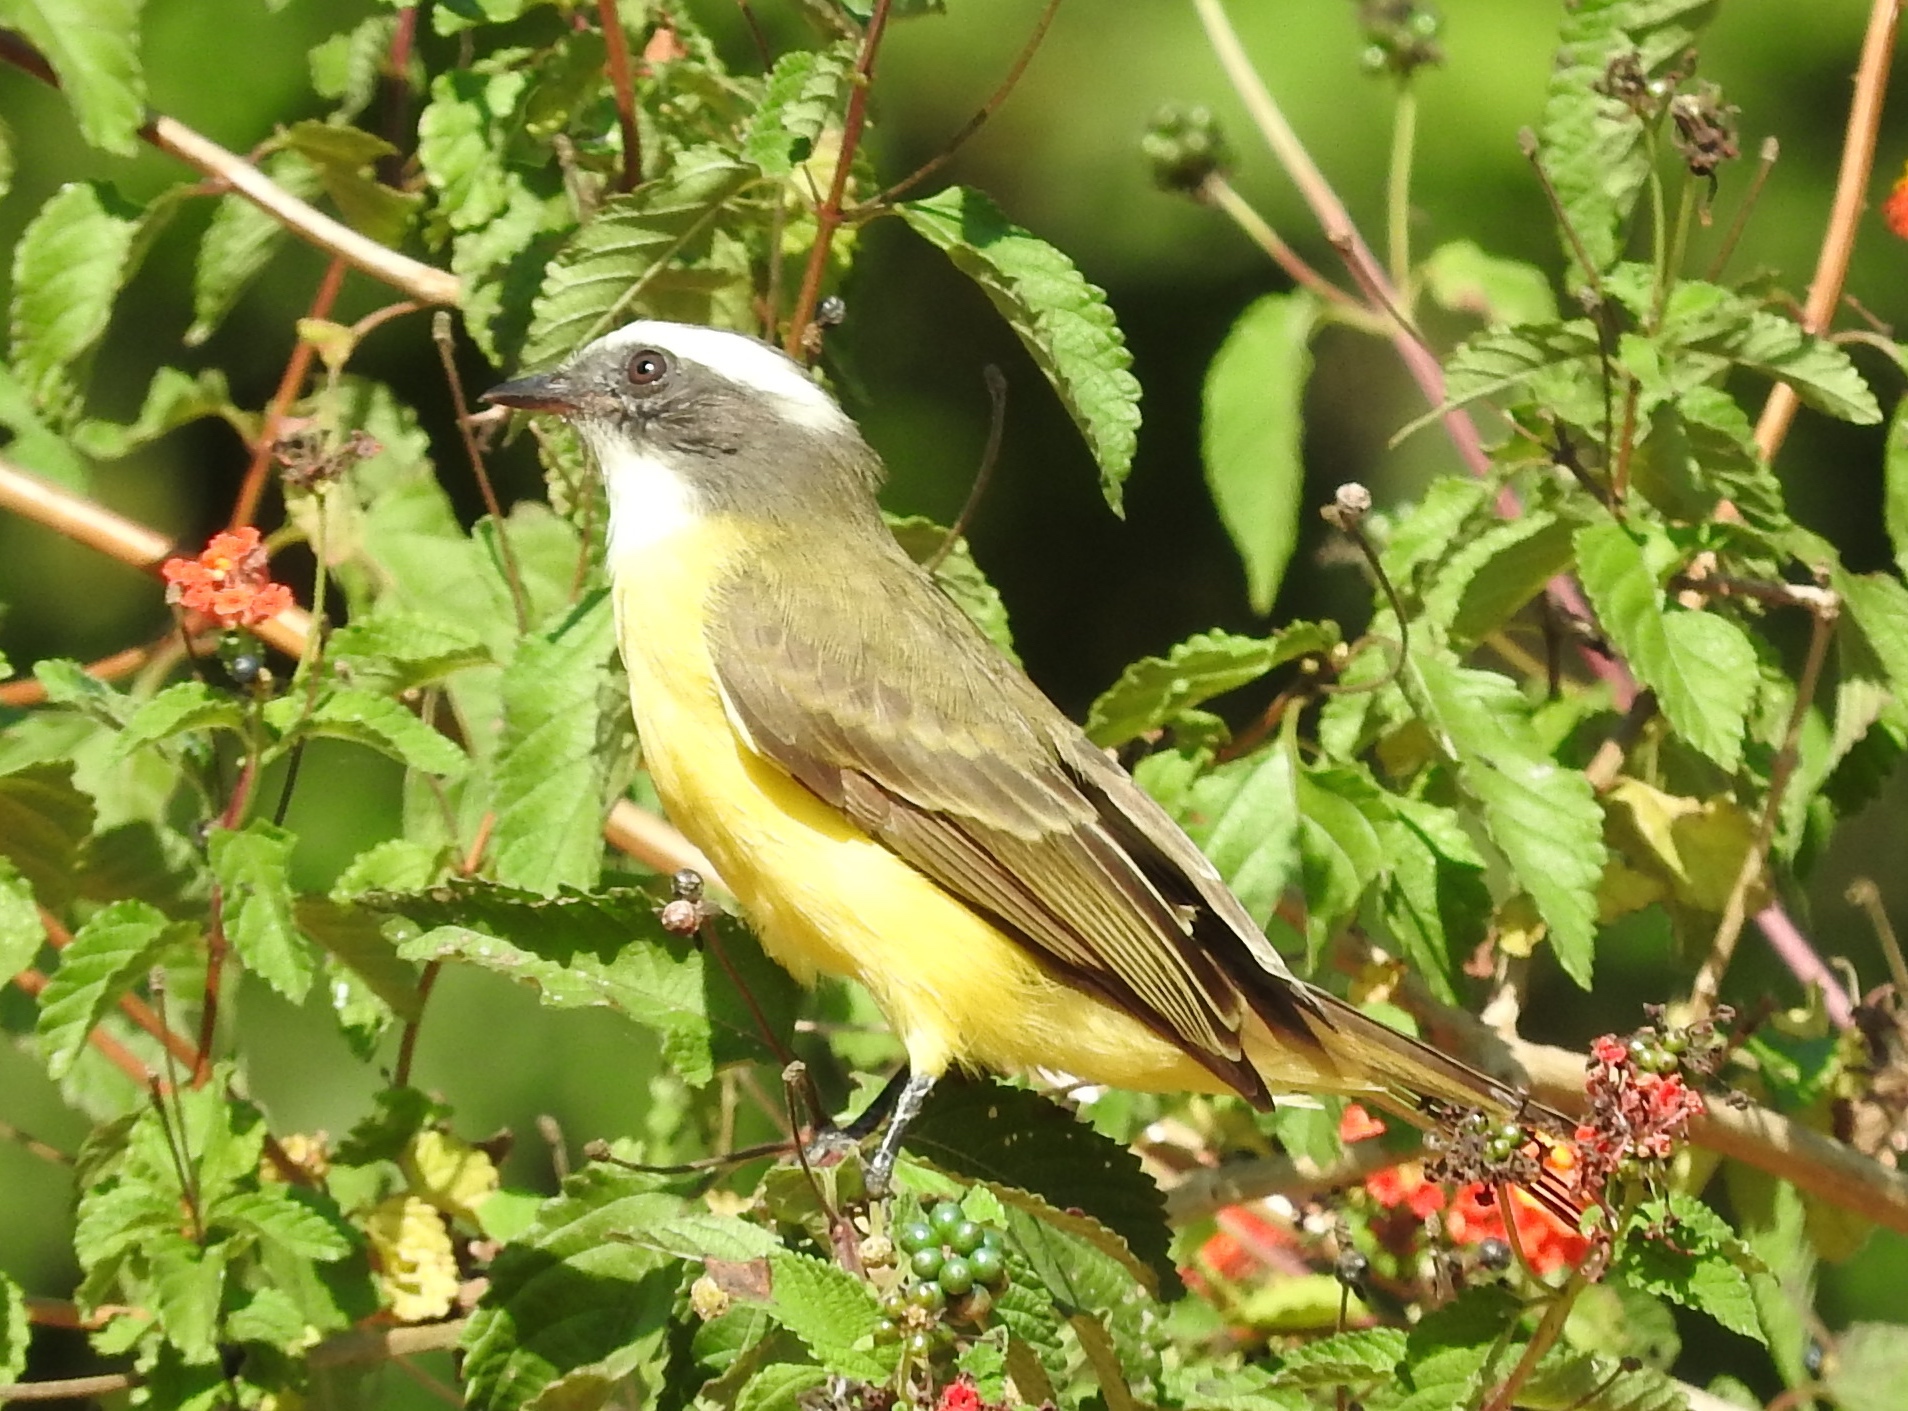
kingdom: Animalia
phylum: Chordata
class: Aves
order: Passeriformes
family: Tyrannidae
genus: Myiozetetes
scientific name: Myiozetetes similis
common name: Social flycatcher
